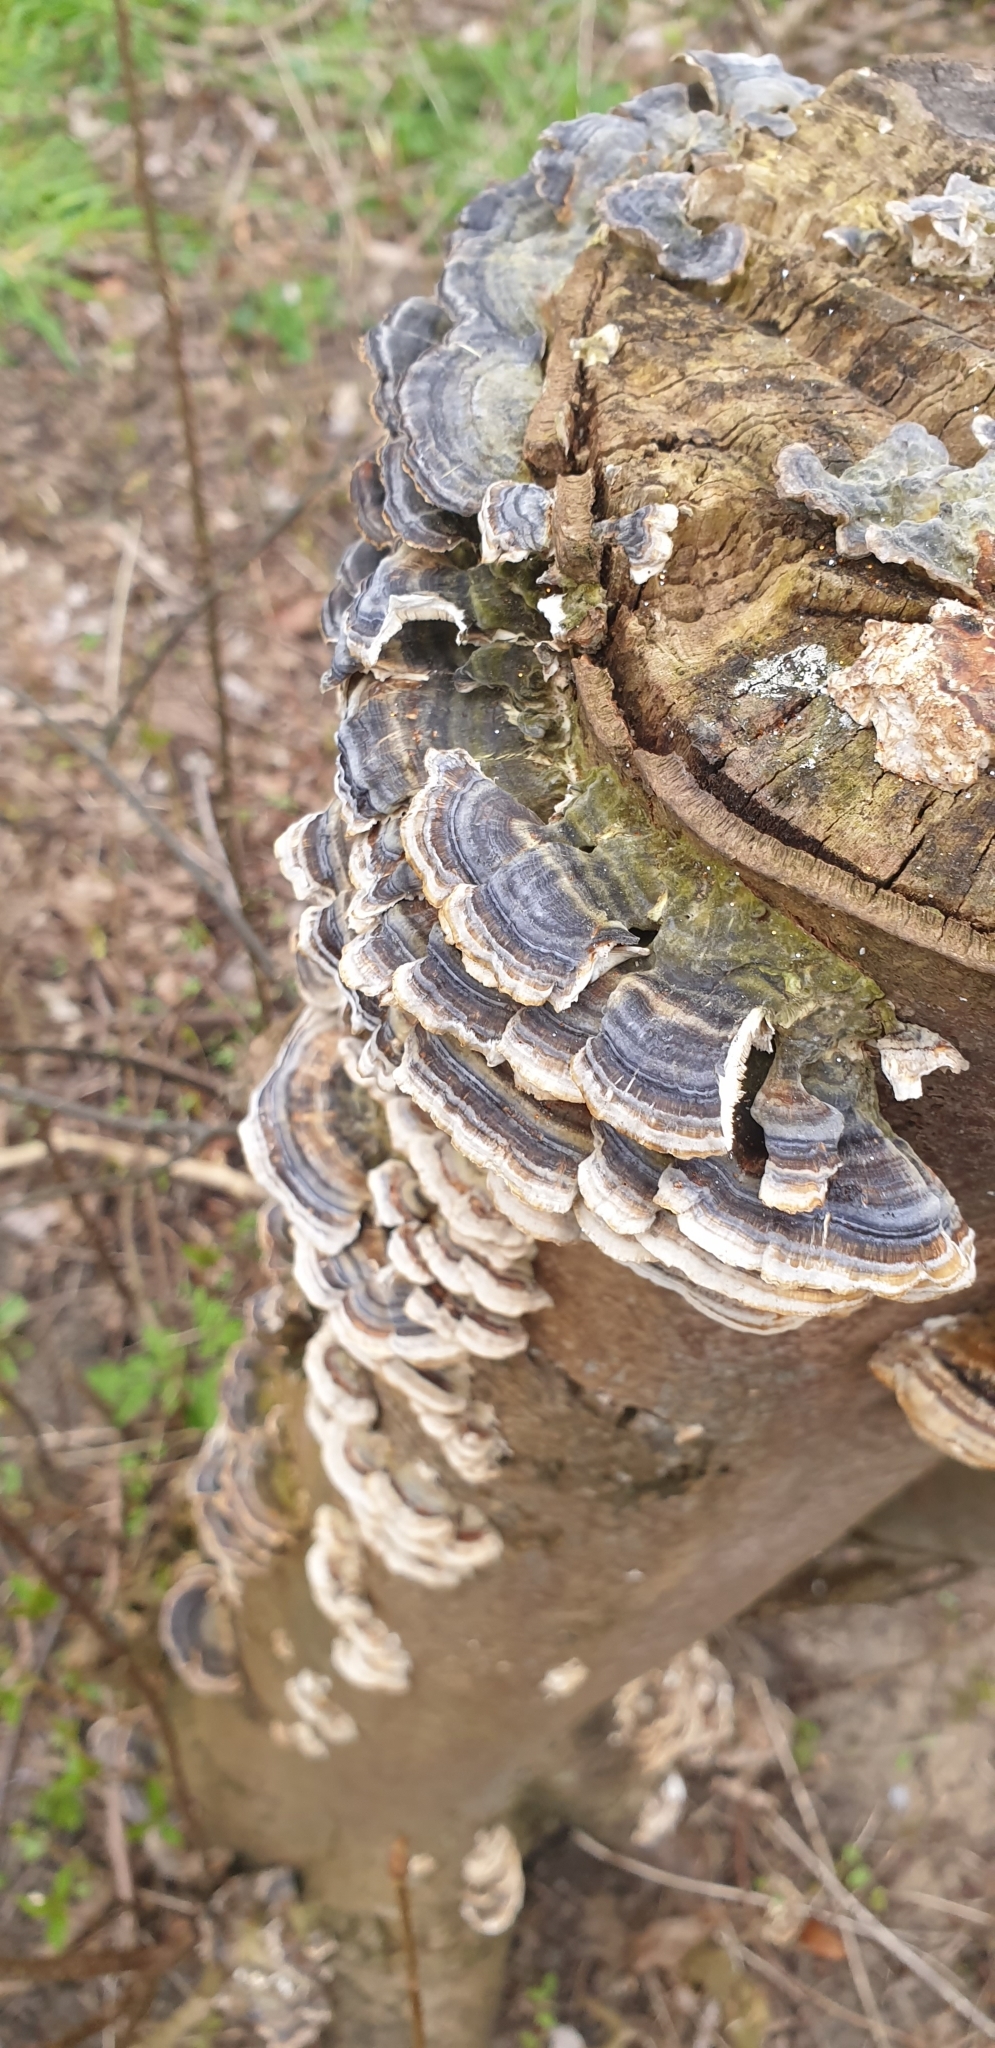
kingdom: Fungi
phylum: Basidiomycota
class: Agaricomycetes
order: Polyporales
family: Polyporaceae
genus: Trametes
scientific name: Trametes versicolor
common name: Turkeytail
